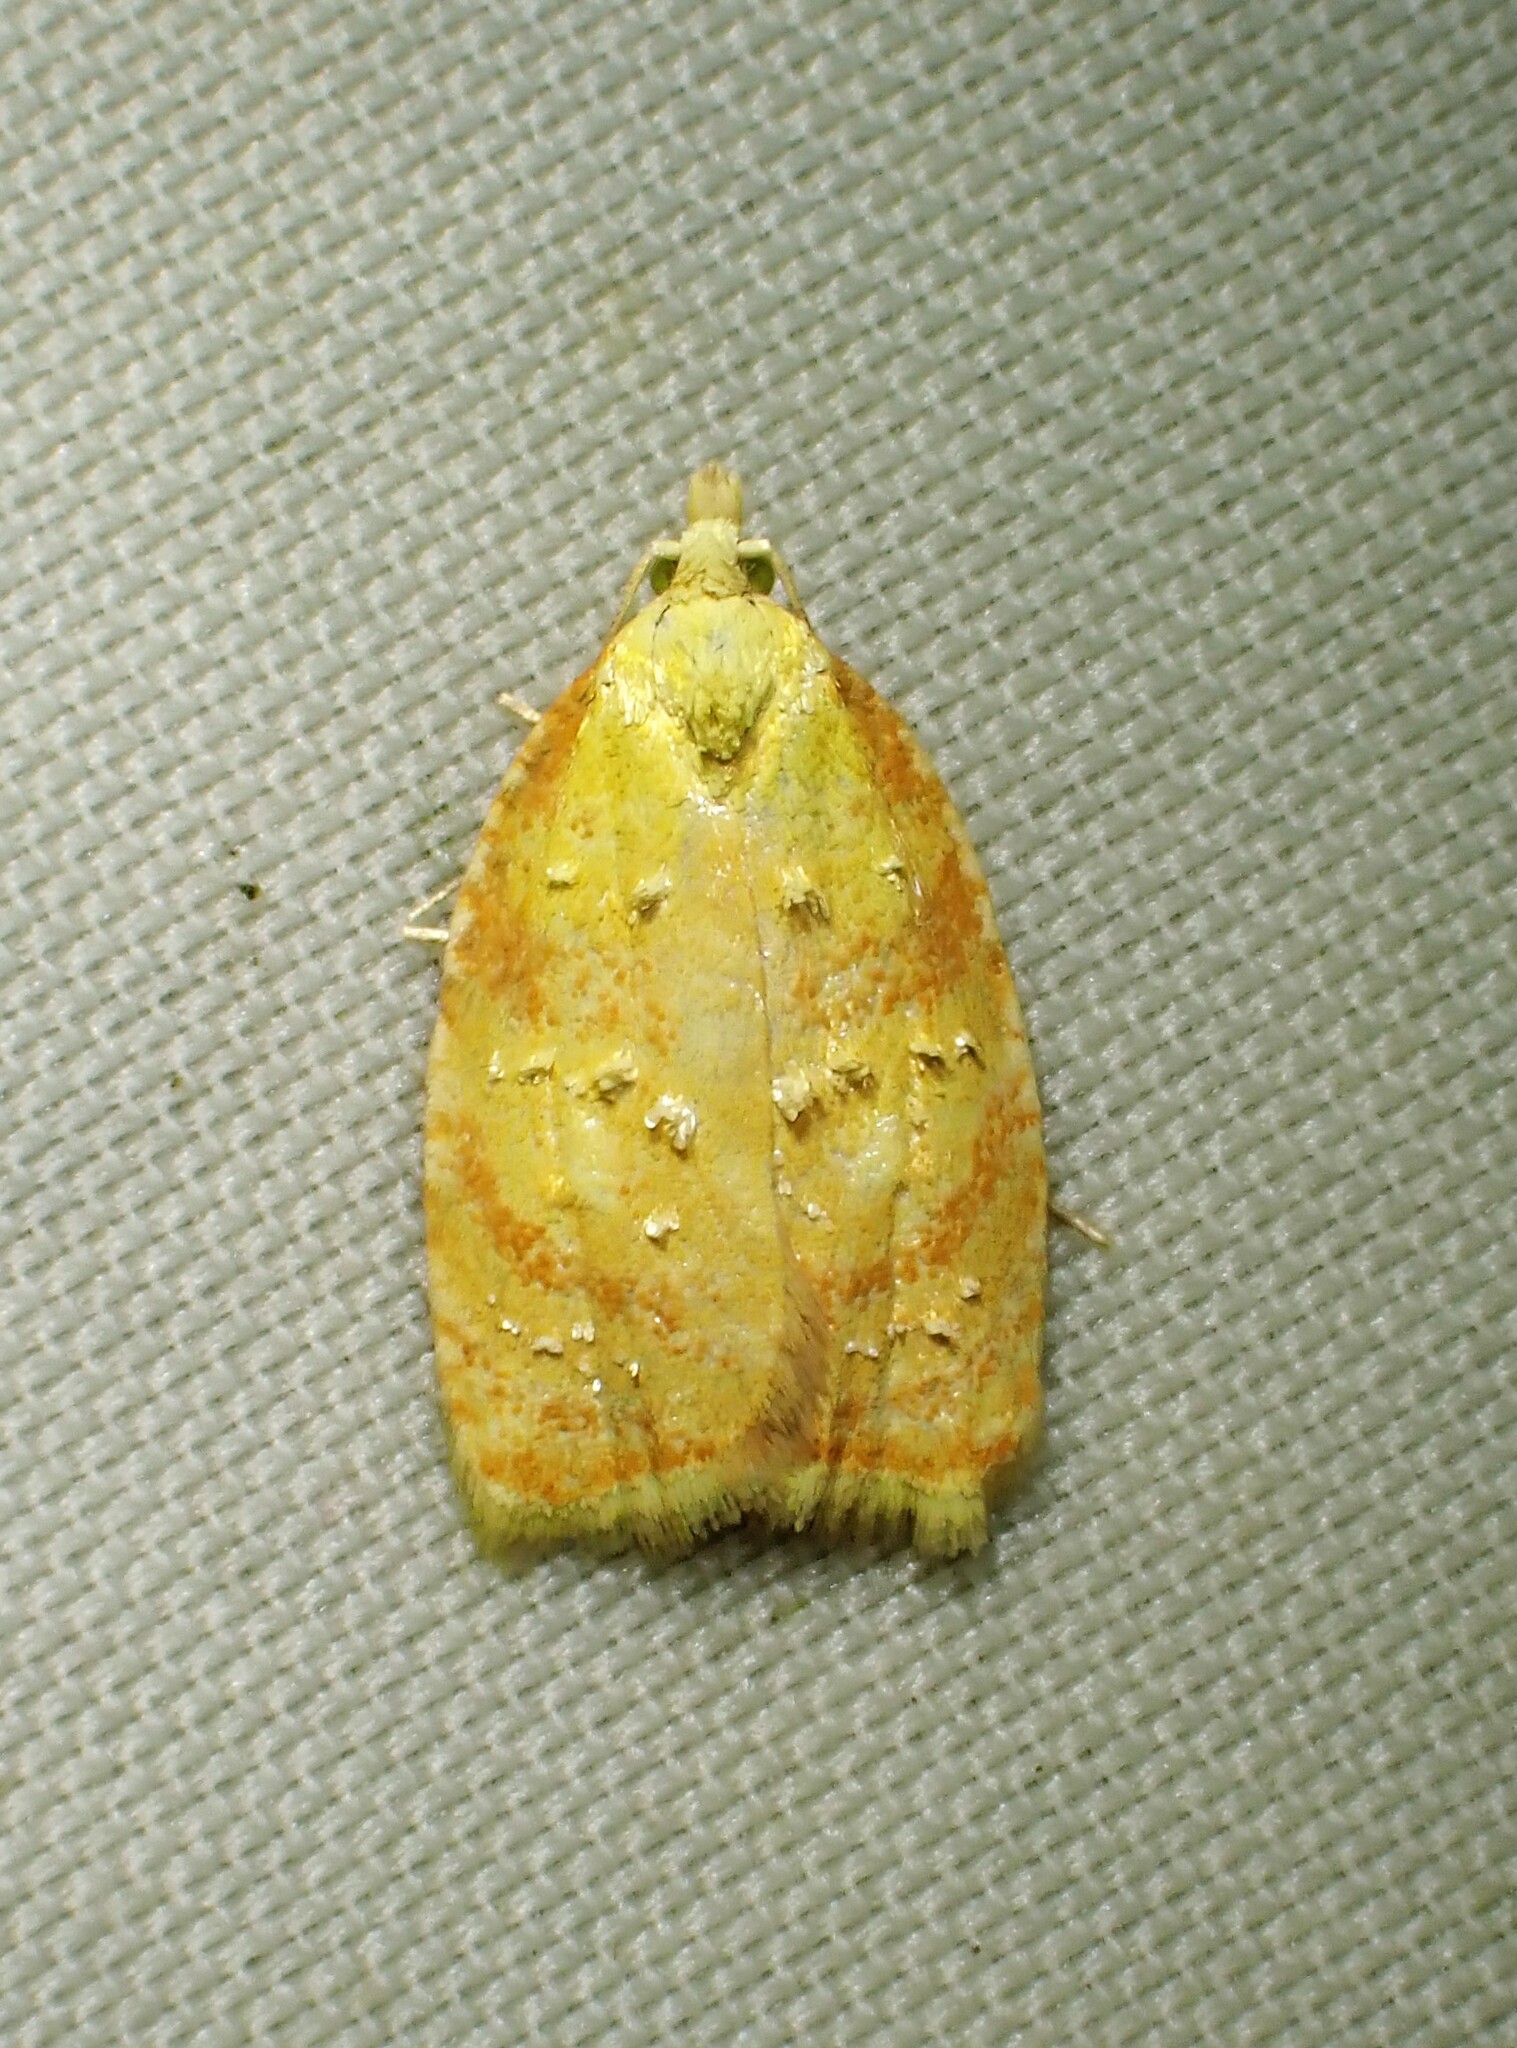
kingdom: Animalia
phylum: Arthropoda
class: Insecta
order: Lepidoptera
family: Tortricidae
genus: Acleris
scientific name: Acleris curvalana
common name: Blueberry leaftier moth
